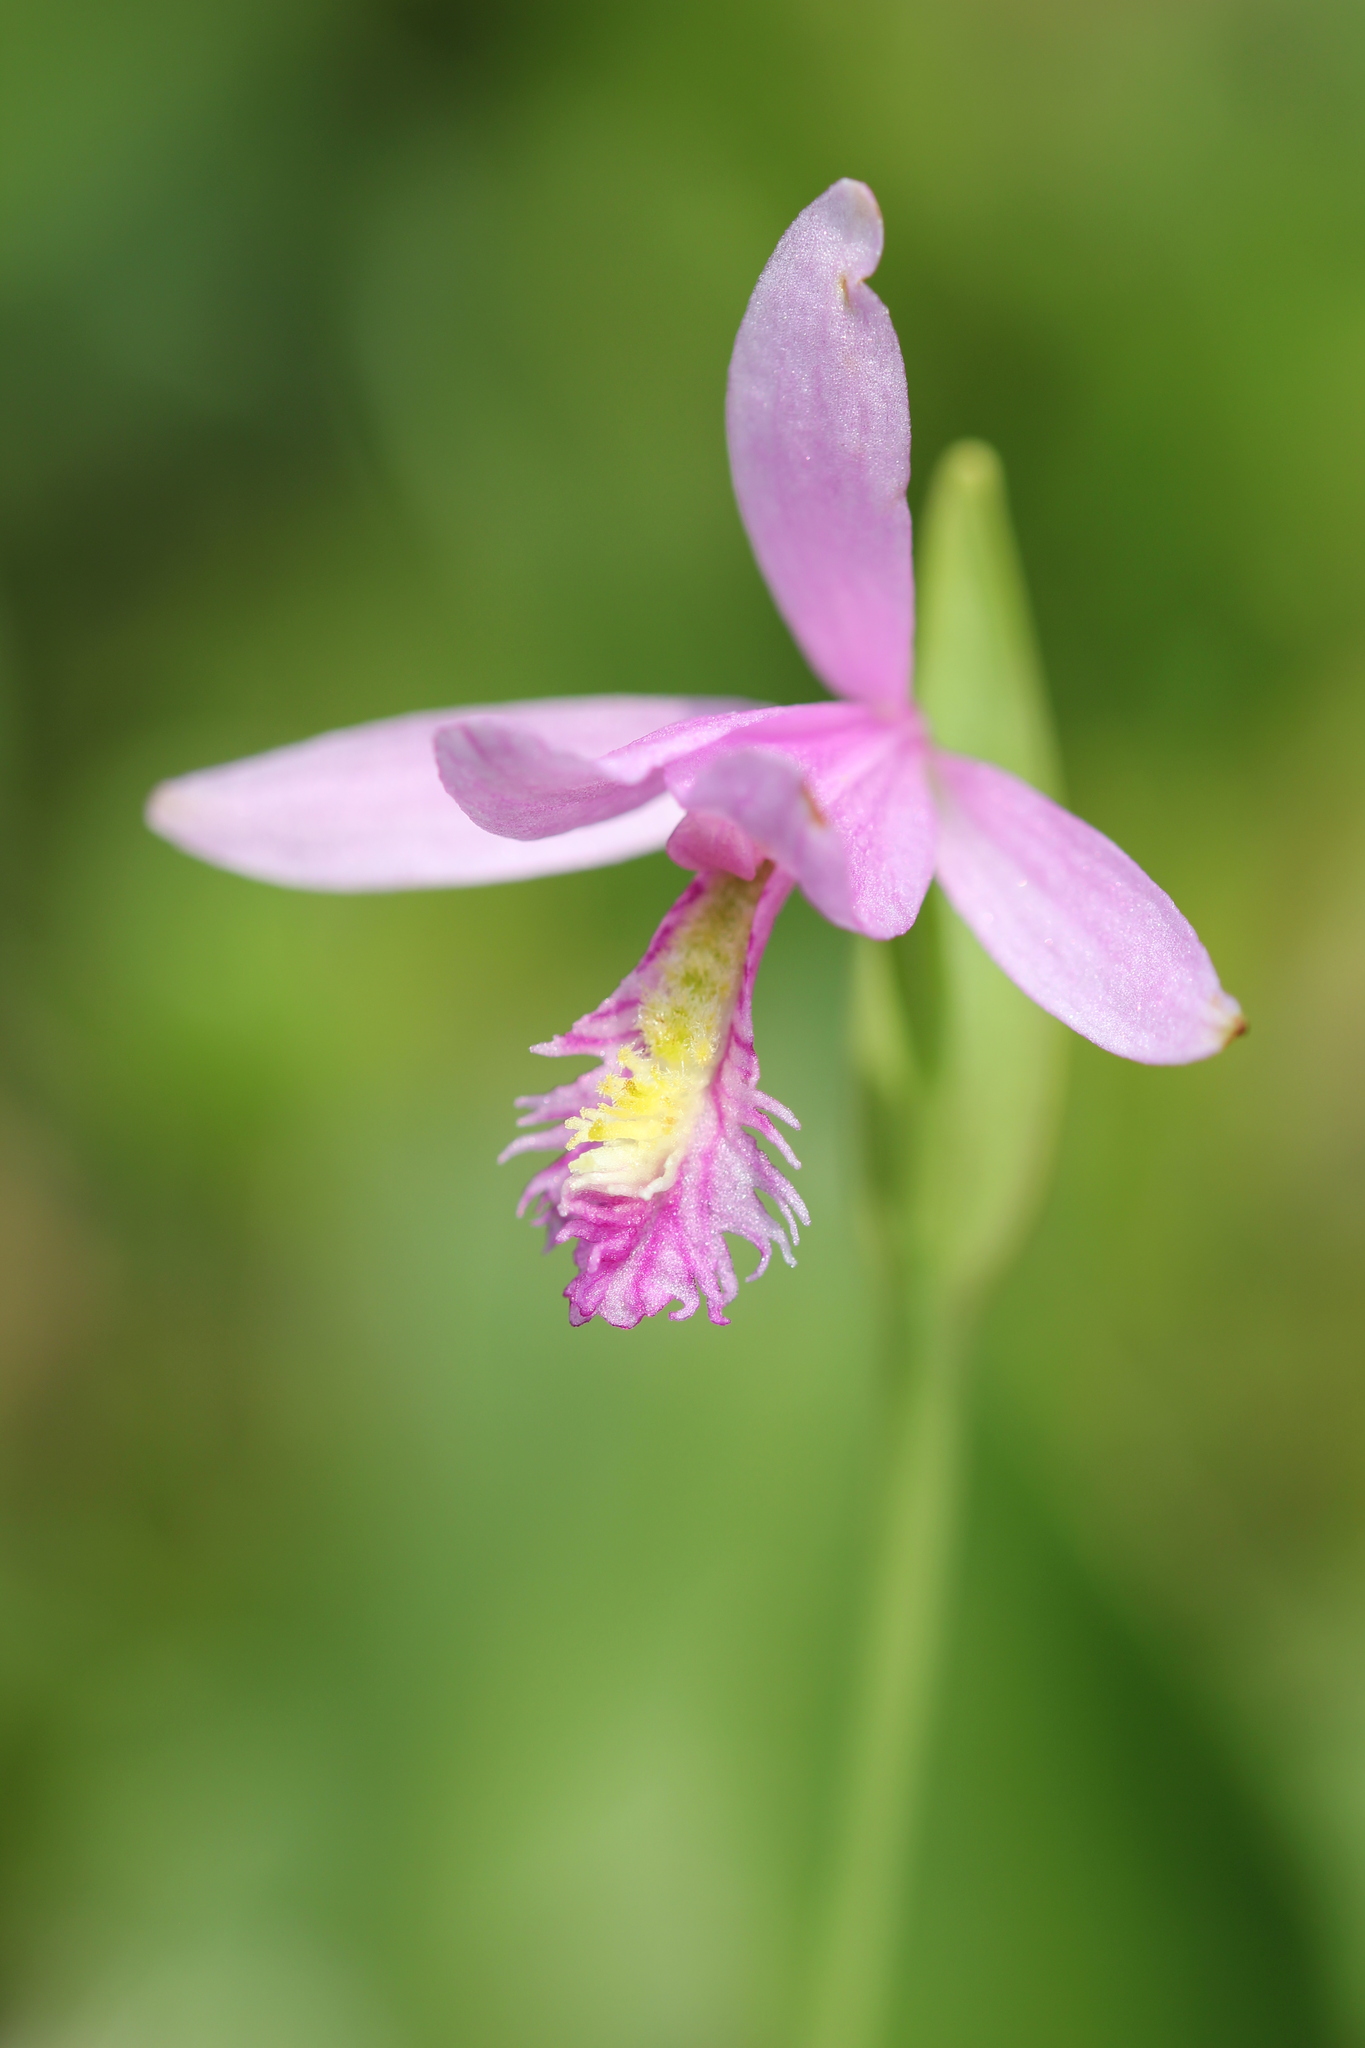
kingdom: Plantae
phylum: Tracheophyta
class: Liliopsida
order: Asparagales
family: Orchidaceae
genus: Pogonia
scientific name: Pogonia ophioglossoides
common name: Rose pogonia
